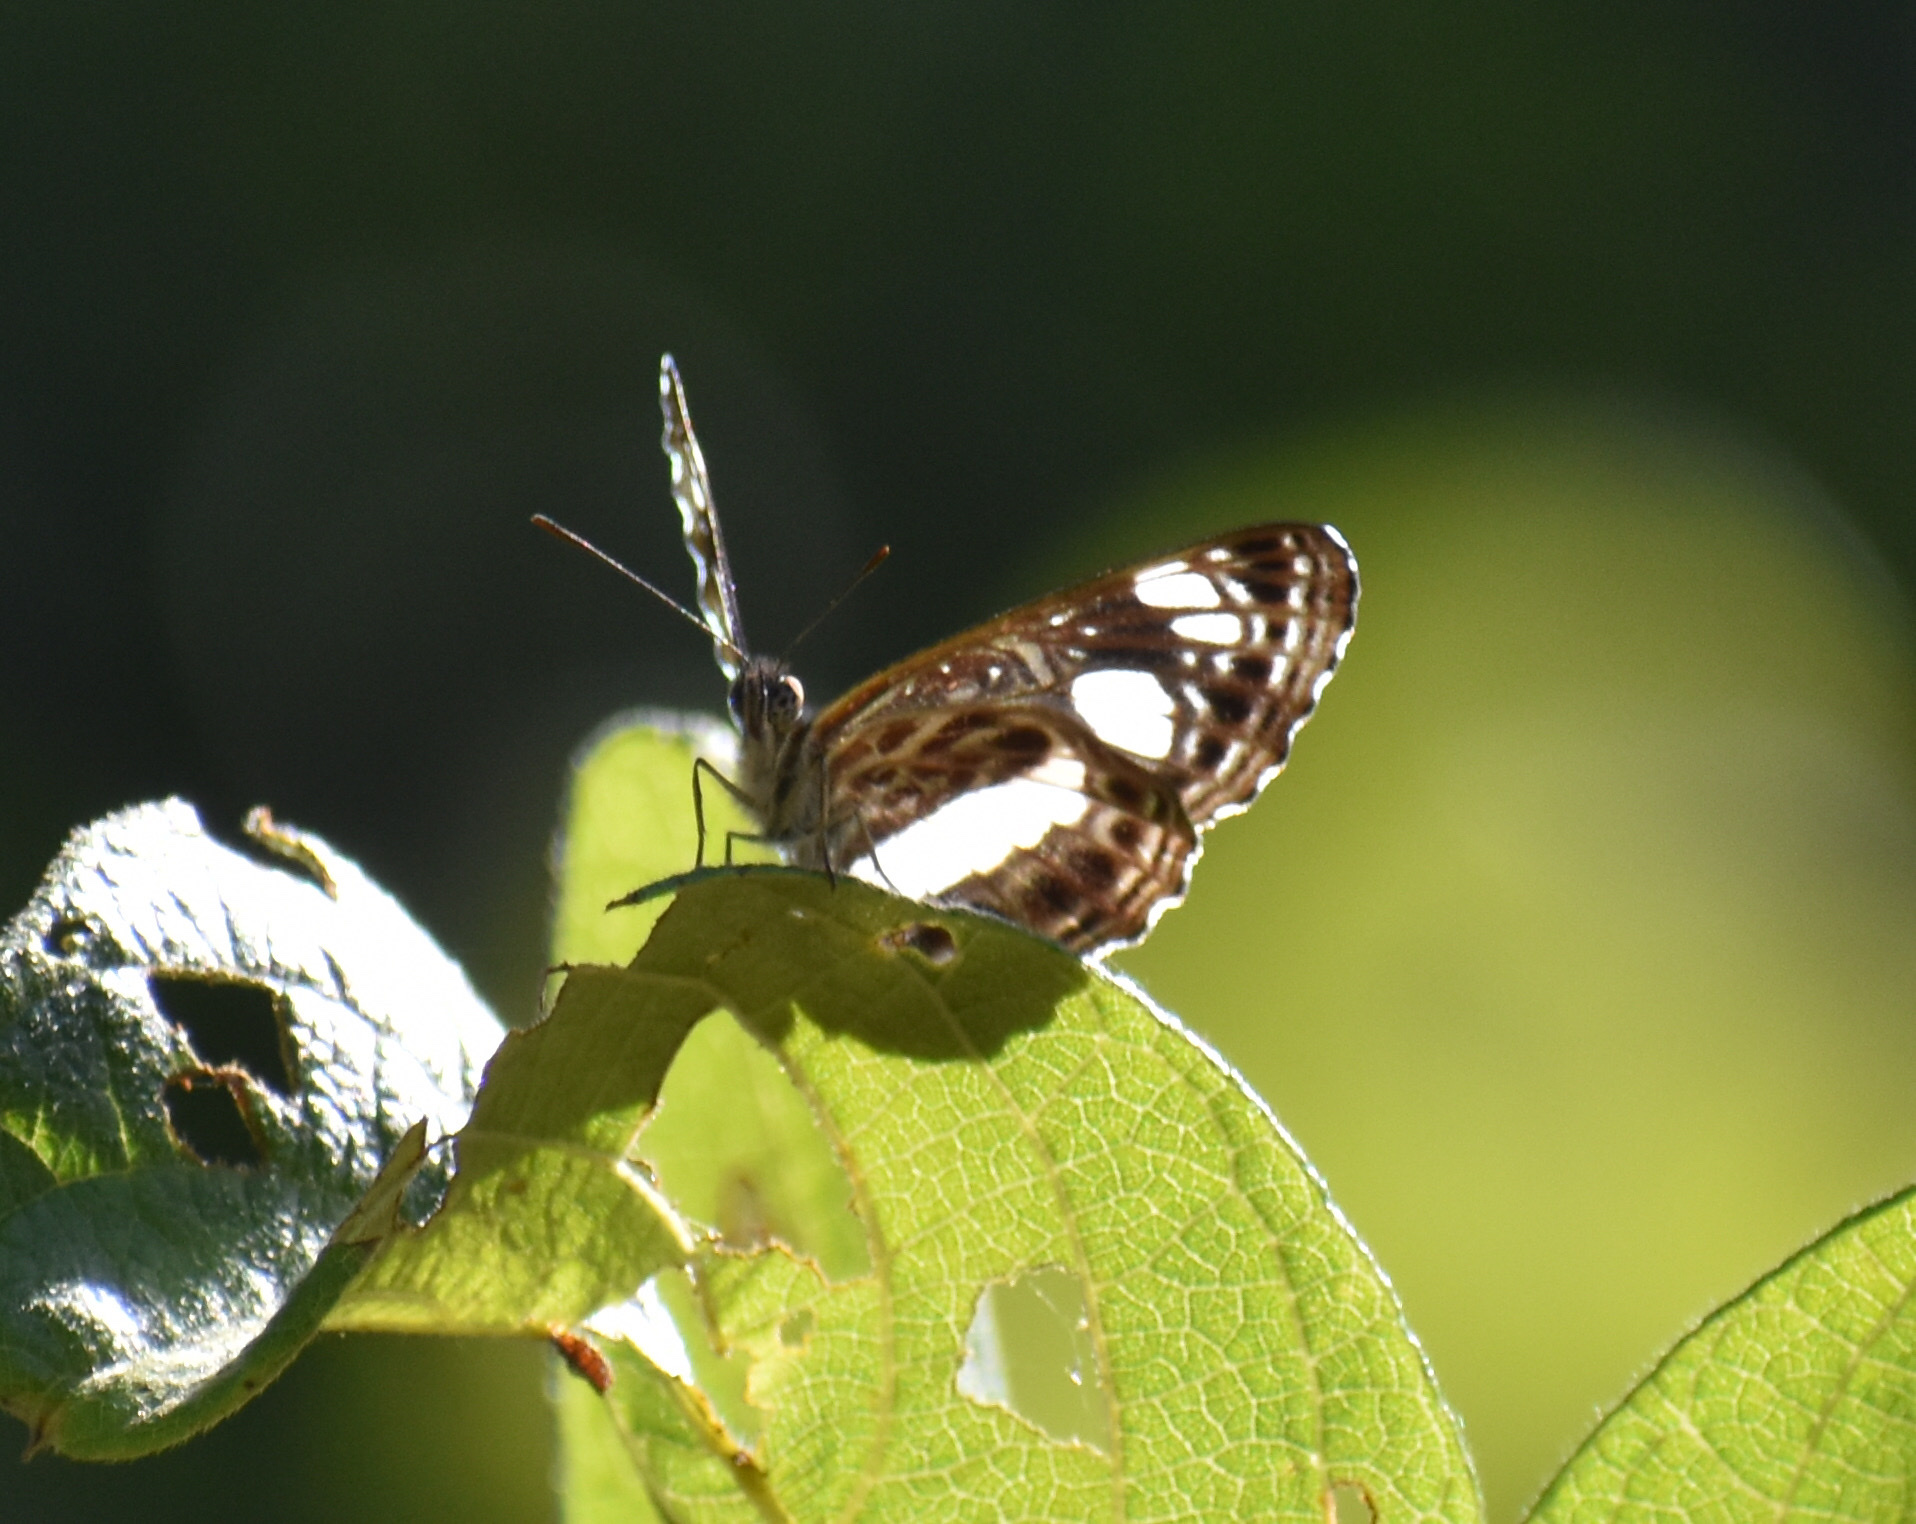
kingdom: Animalia
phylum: Arthropoda
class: Insecta
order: Lepidoptera
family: Nymphalidae
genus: Neptis
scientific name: Neptis saclava
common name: Small spotted sailor
